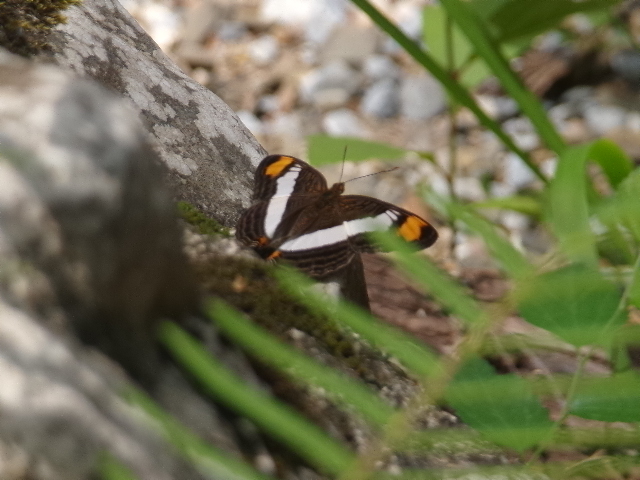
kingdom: Animalia
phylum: Arthropoda
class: Insecta
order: Lepidoptera
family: Nymphalidae
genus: Limenitis
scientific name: Limenitis Adelpha basiloides
